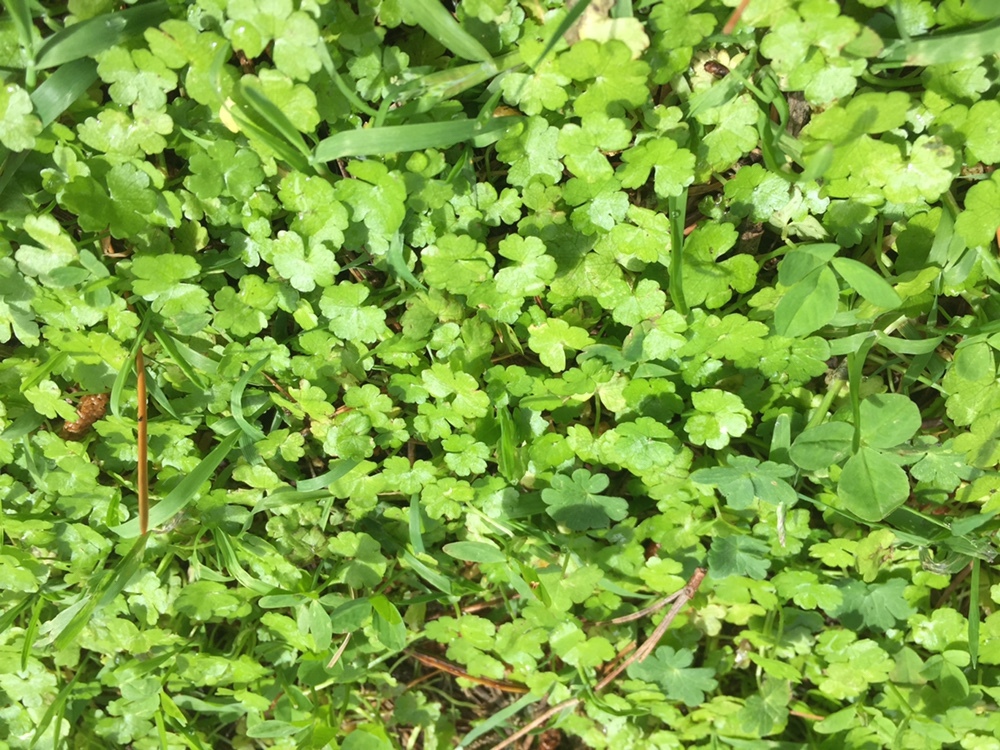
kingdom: Plantae
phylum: Tracheophyta
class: Magnoliopsida
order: Apiales
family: Araliaceae
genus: Hydrocotyle
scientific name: Hydrocotyle heteromeria
